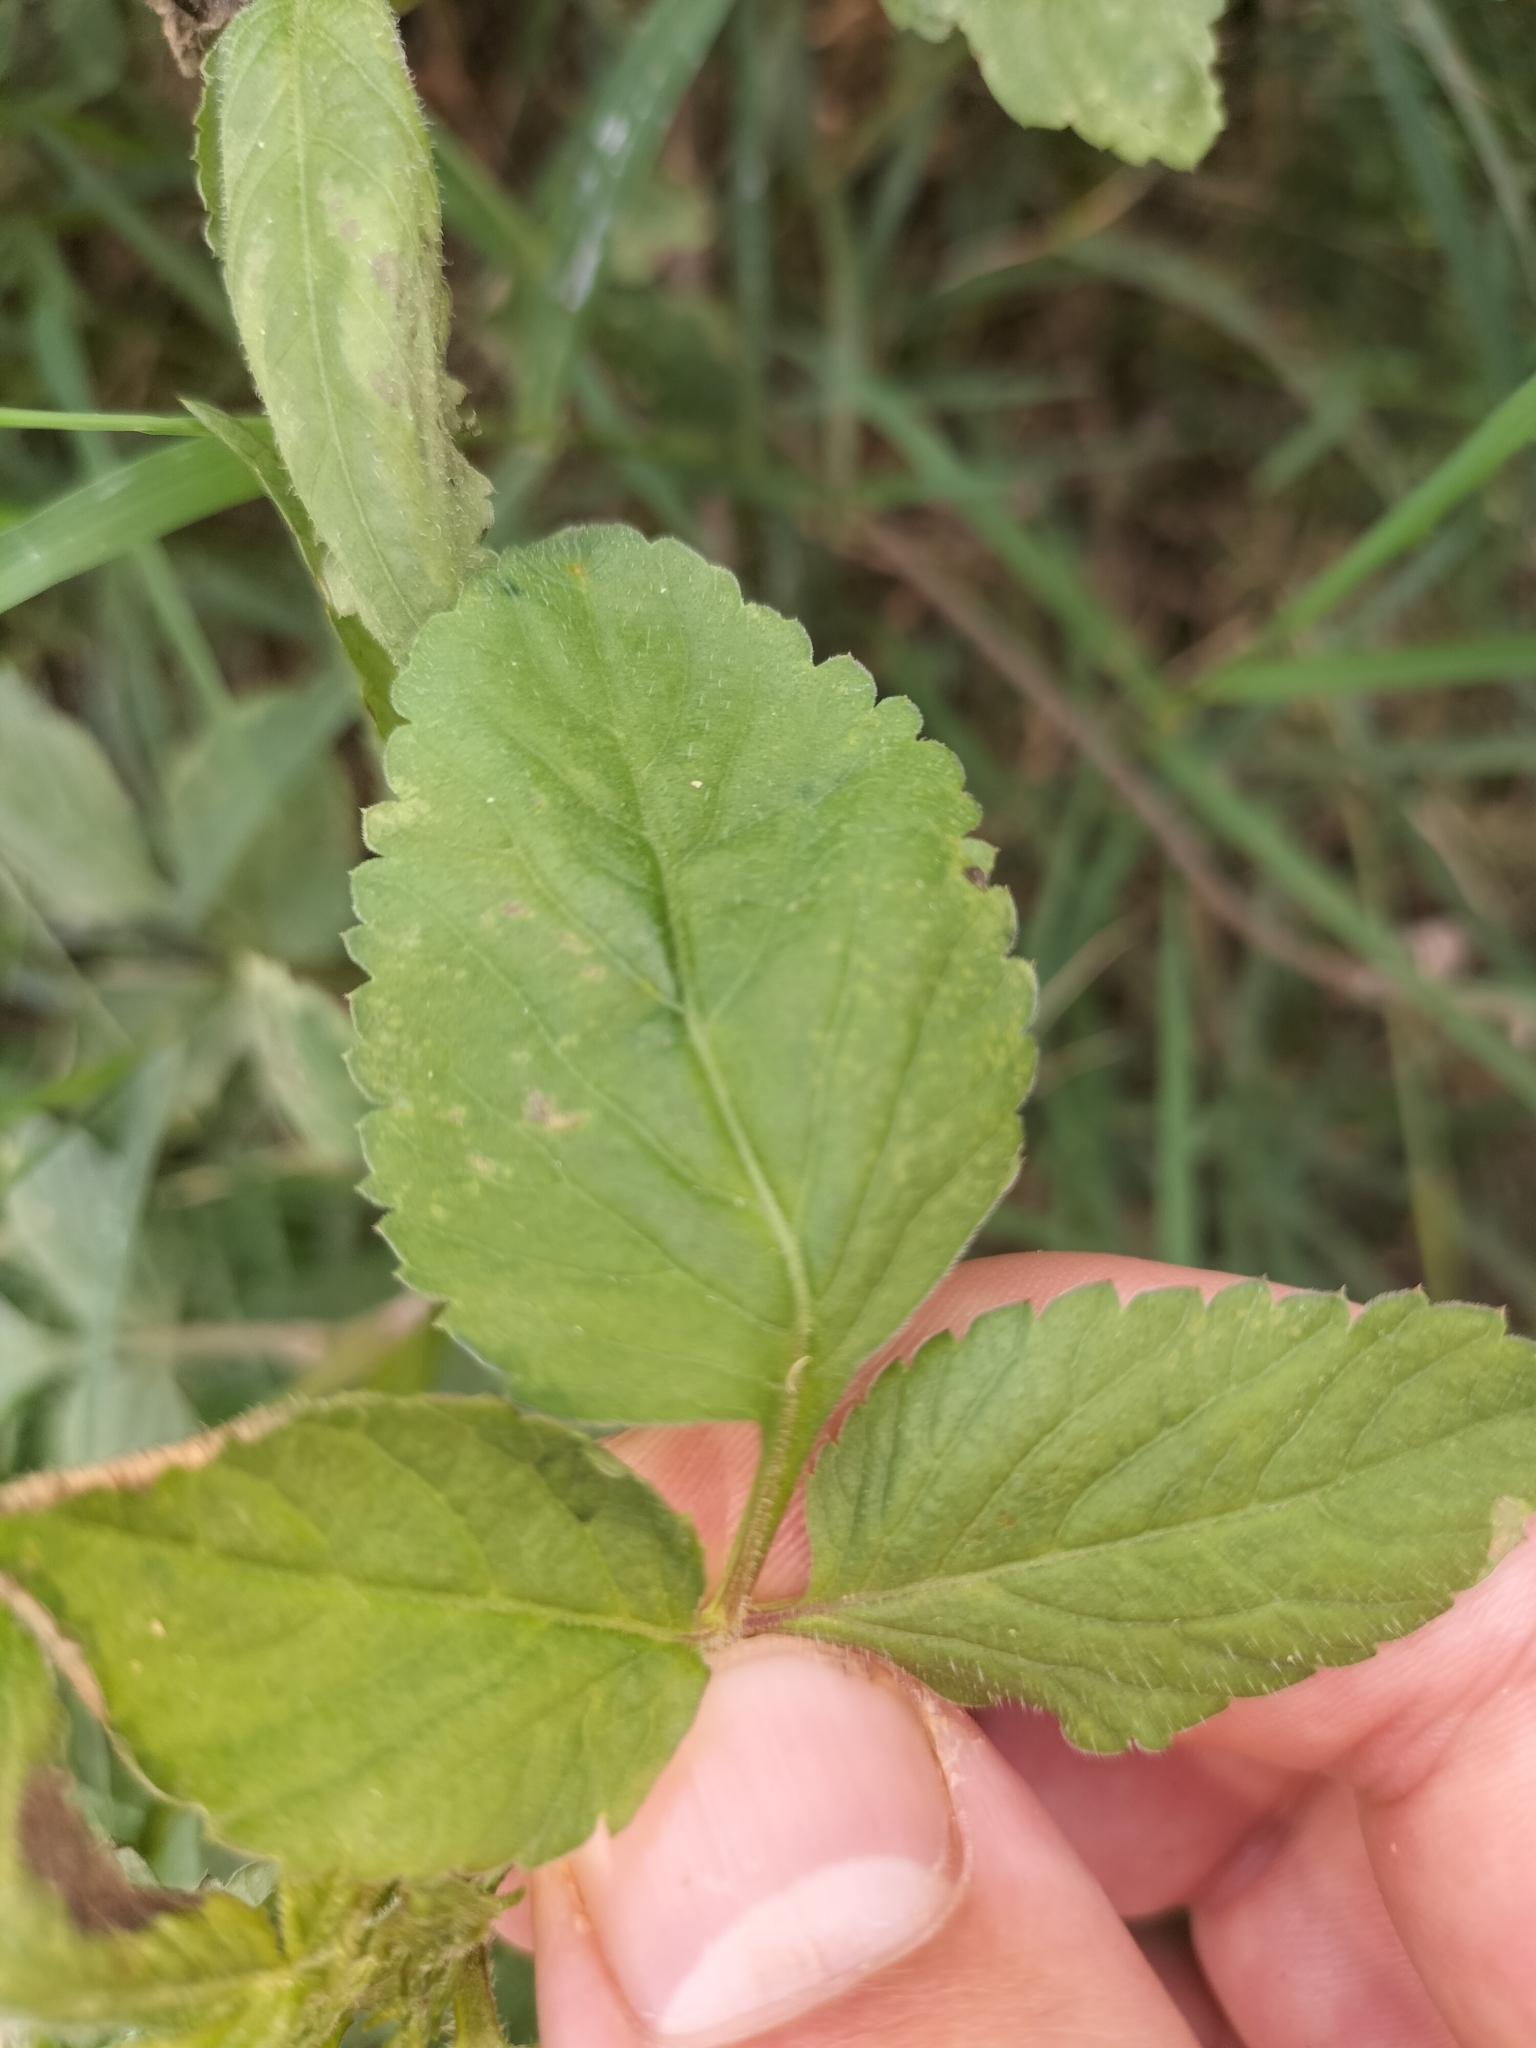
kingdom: Plantae
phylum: Tracheophyta
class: Magnoliopsida
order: Asterales
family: Asteraceae
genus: Bidens
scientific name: Bidens pilosa
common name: Black-jack
